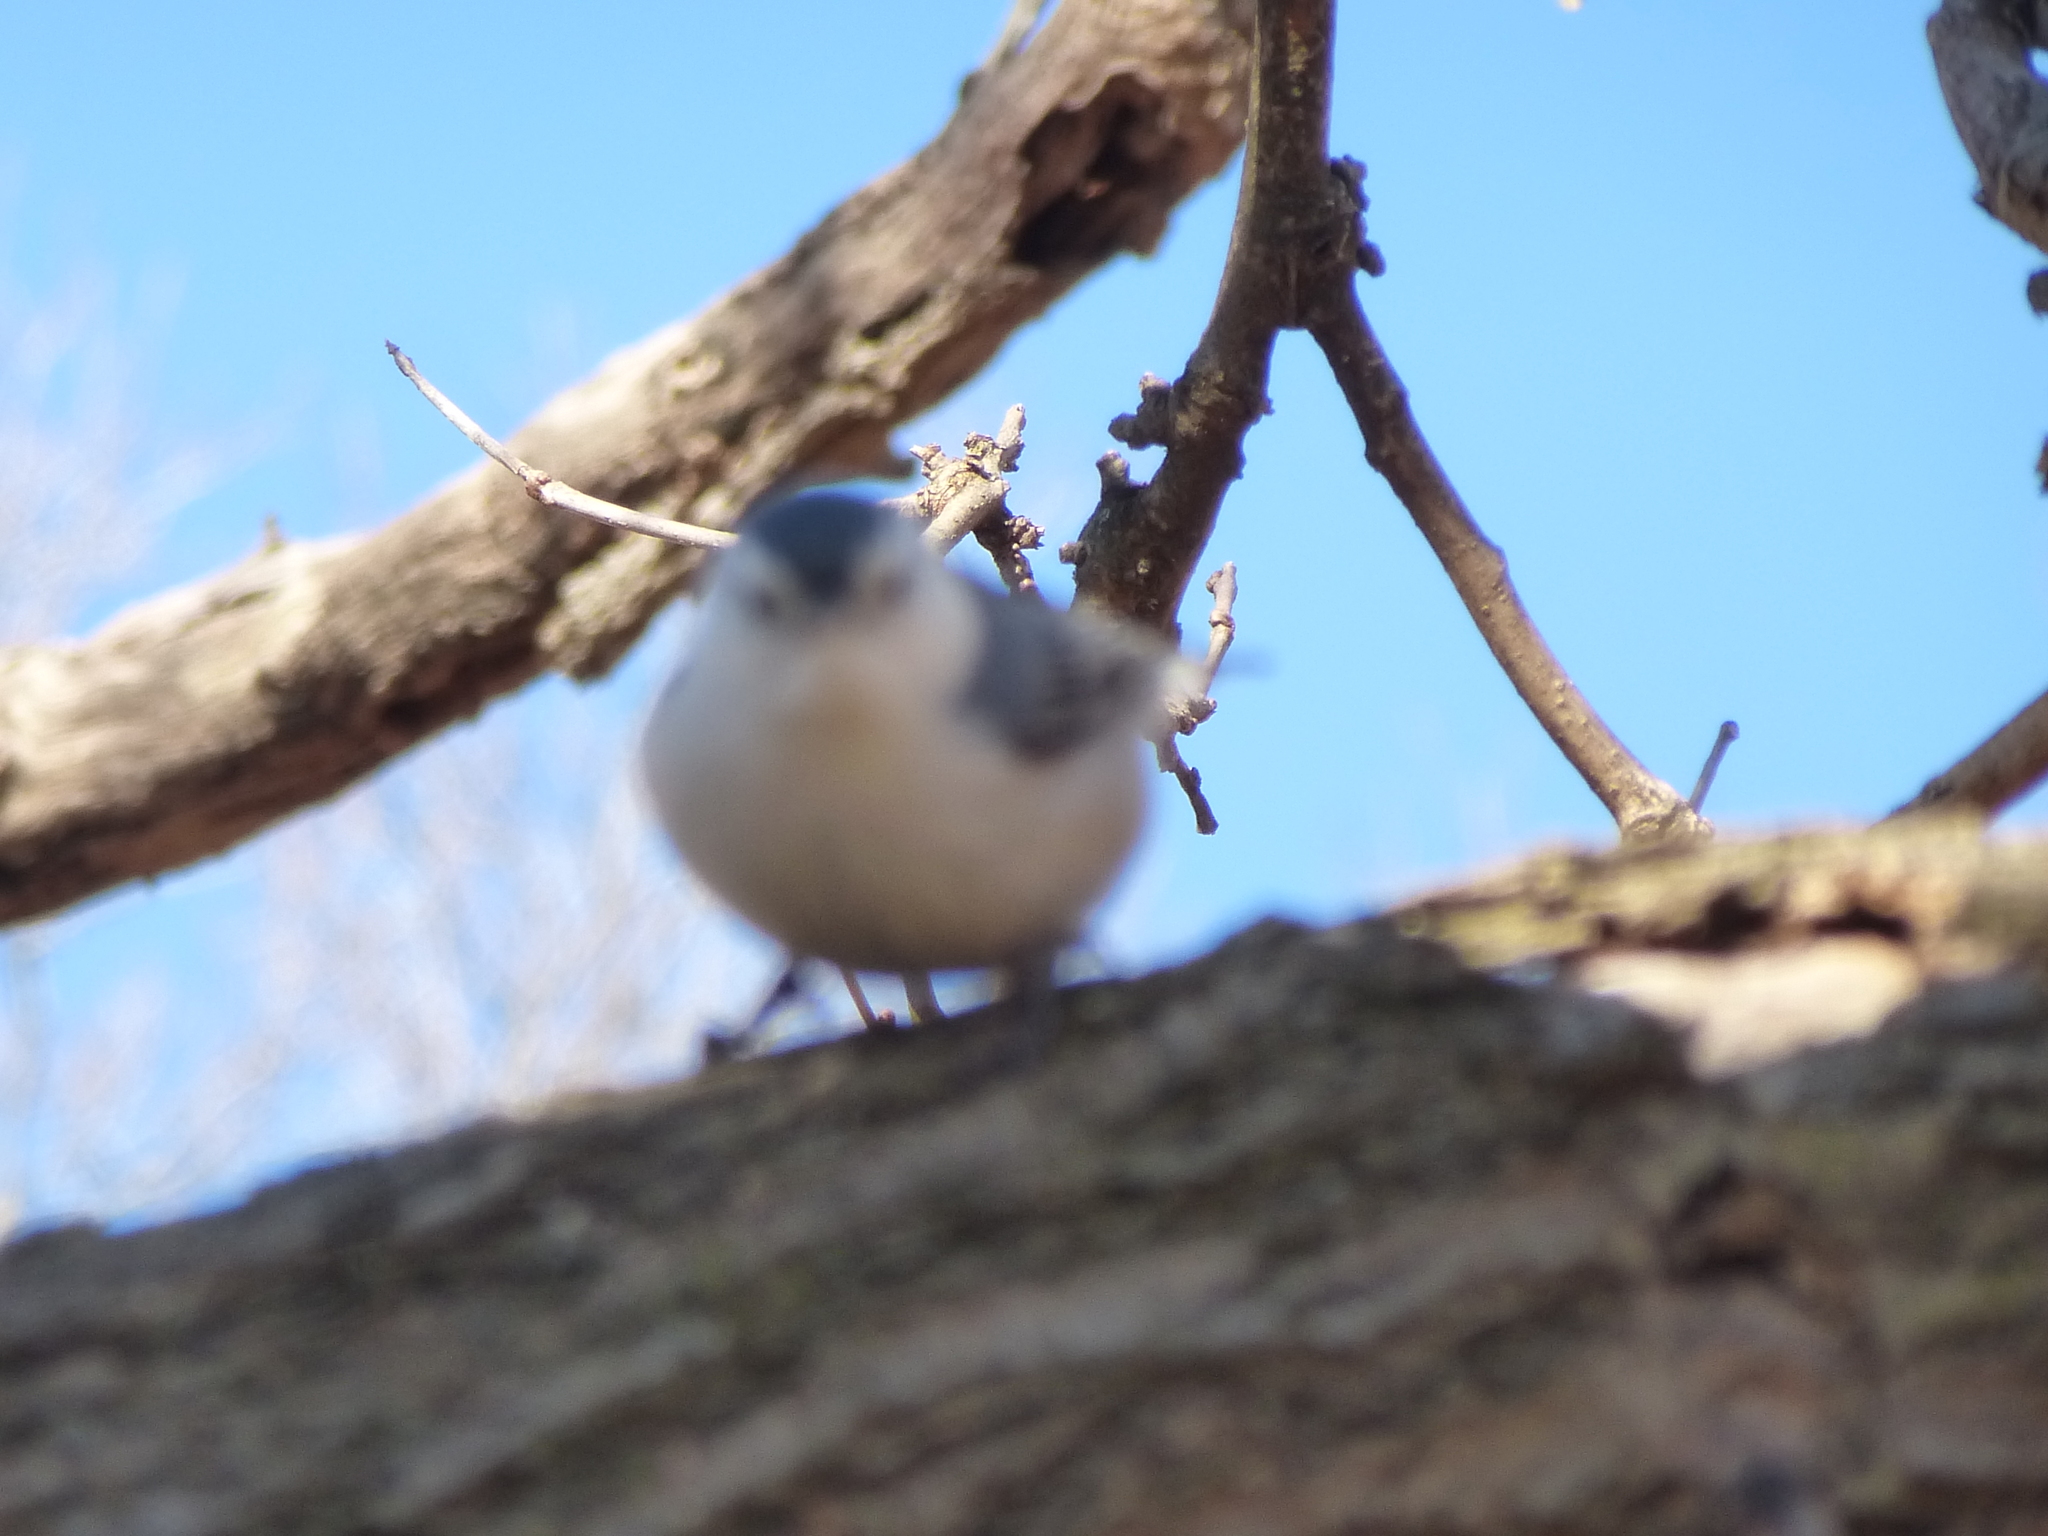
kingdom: Animalia
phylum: Chordata
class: Aves
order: Passeriformes
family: Sittidae
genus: Sitta
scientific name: Sitta carolinensis
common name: White-breasted nuthatch
